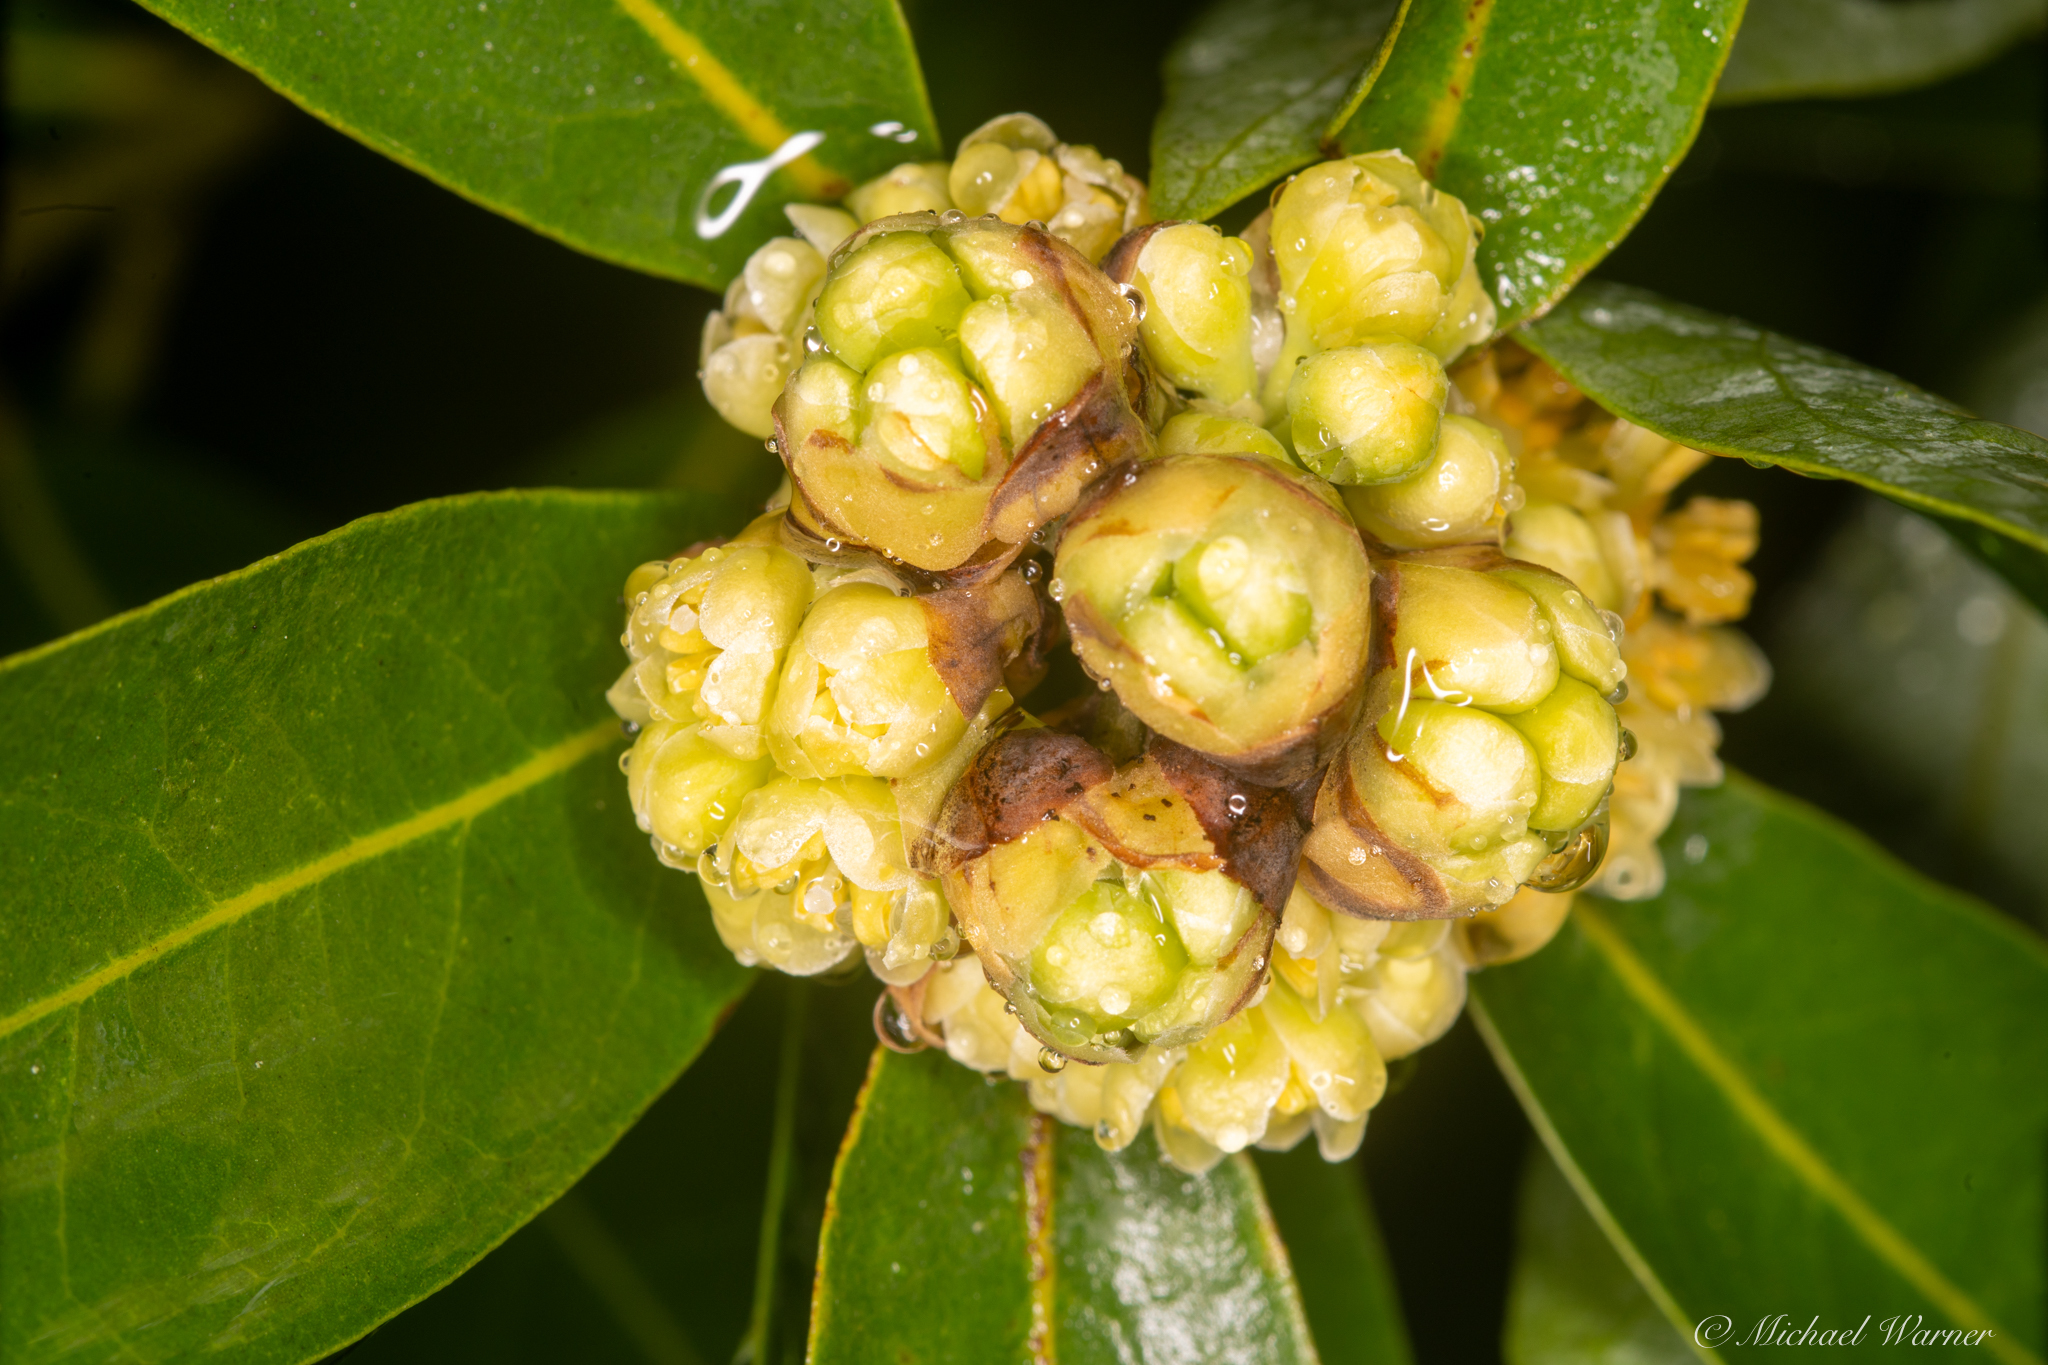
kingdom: Plantae
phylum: Tracheophyta
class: Magnoliopsida
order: Laurales
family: Lauraceae
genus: Umbellularia
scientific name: Umbellularia californica
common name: California bay
